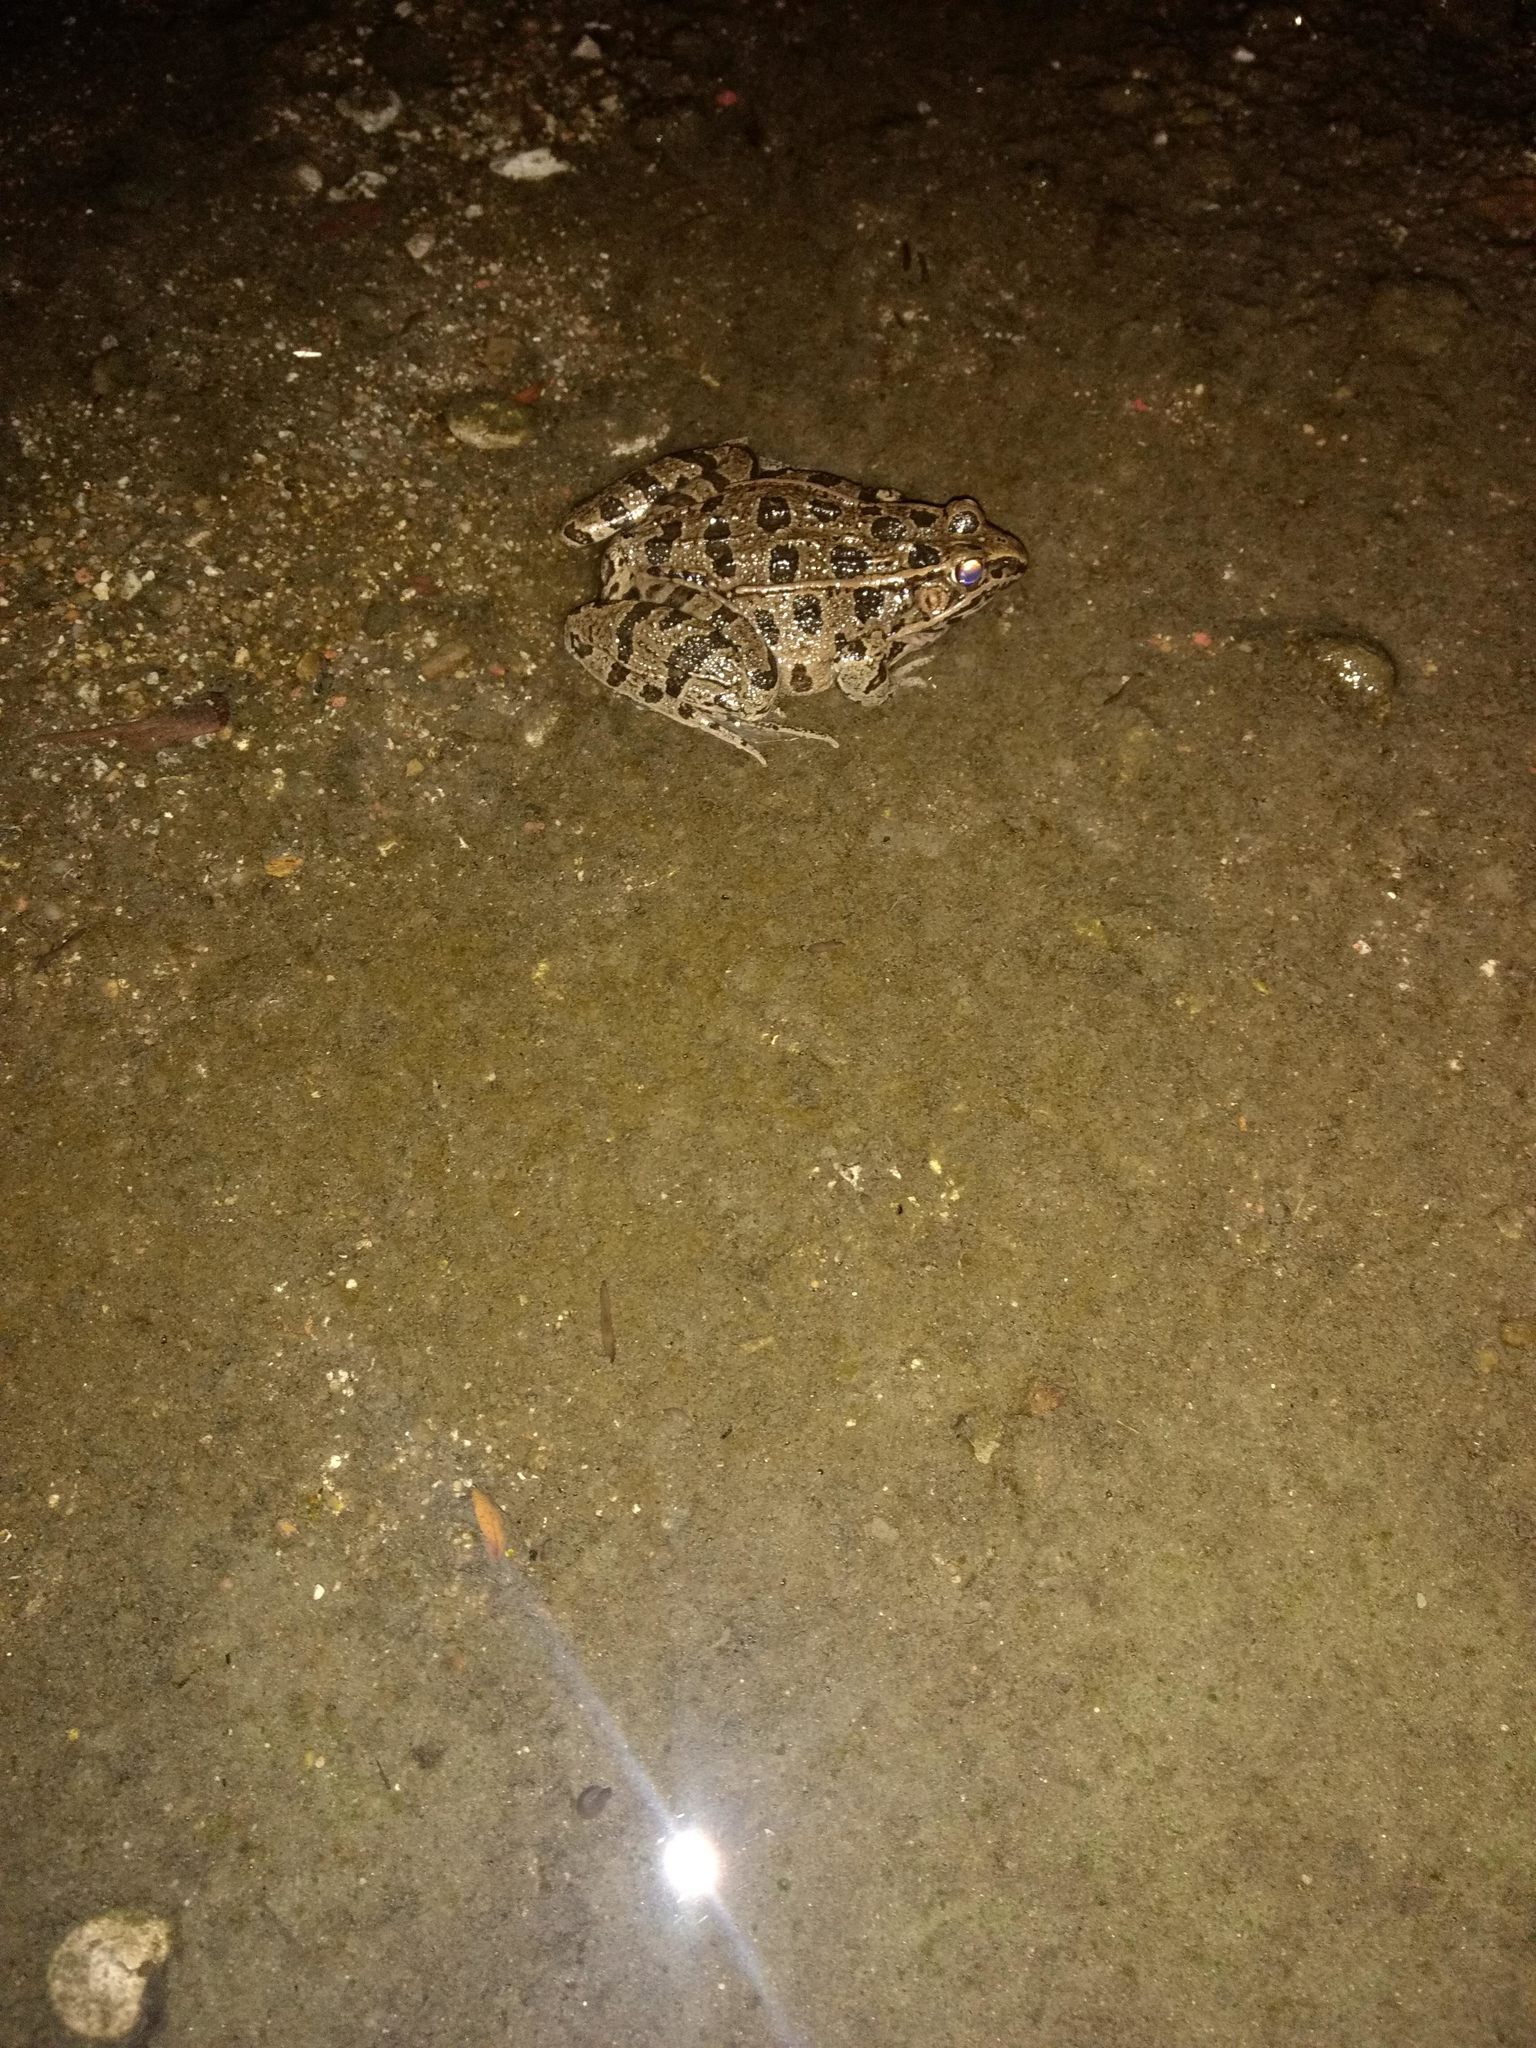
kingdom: Animalia
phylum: Chordata
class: Amphibia
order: Anura
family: Ranidae
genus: Lithobates
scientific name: Lithobates blairi
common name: Plains leopard frog
